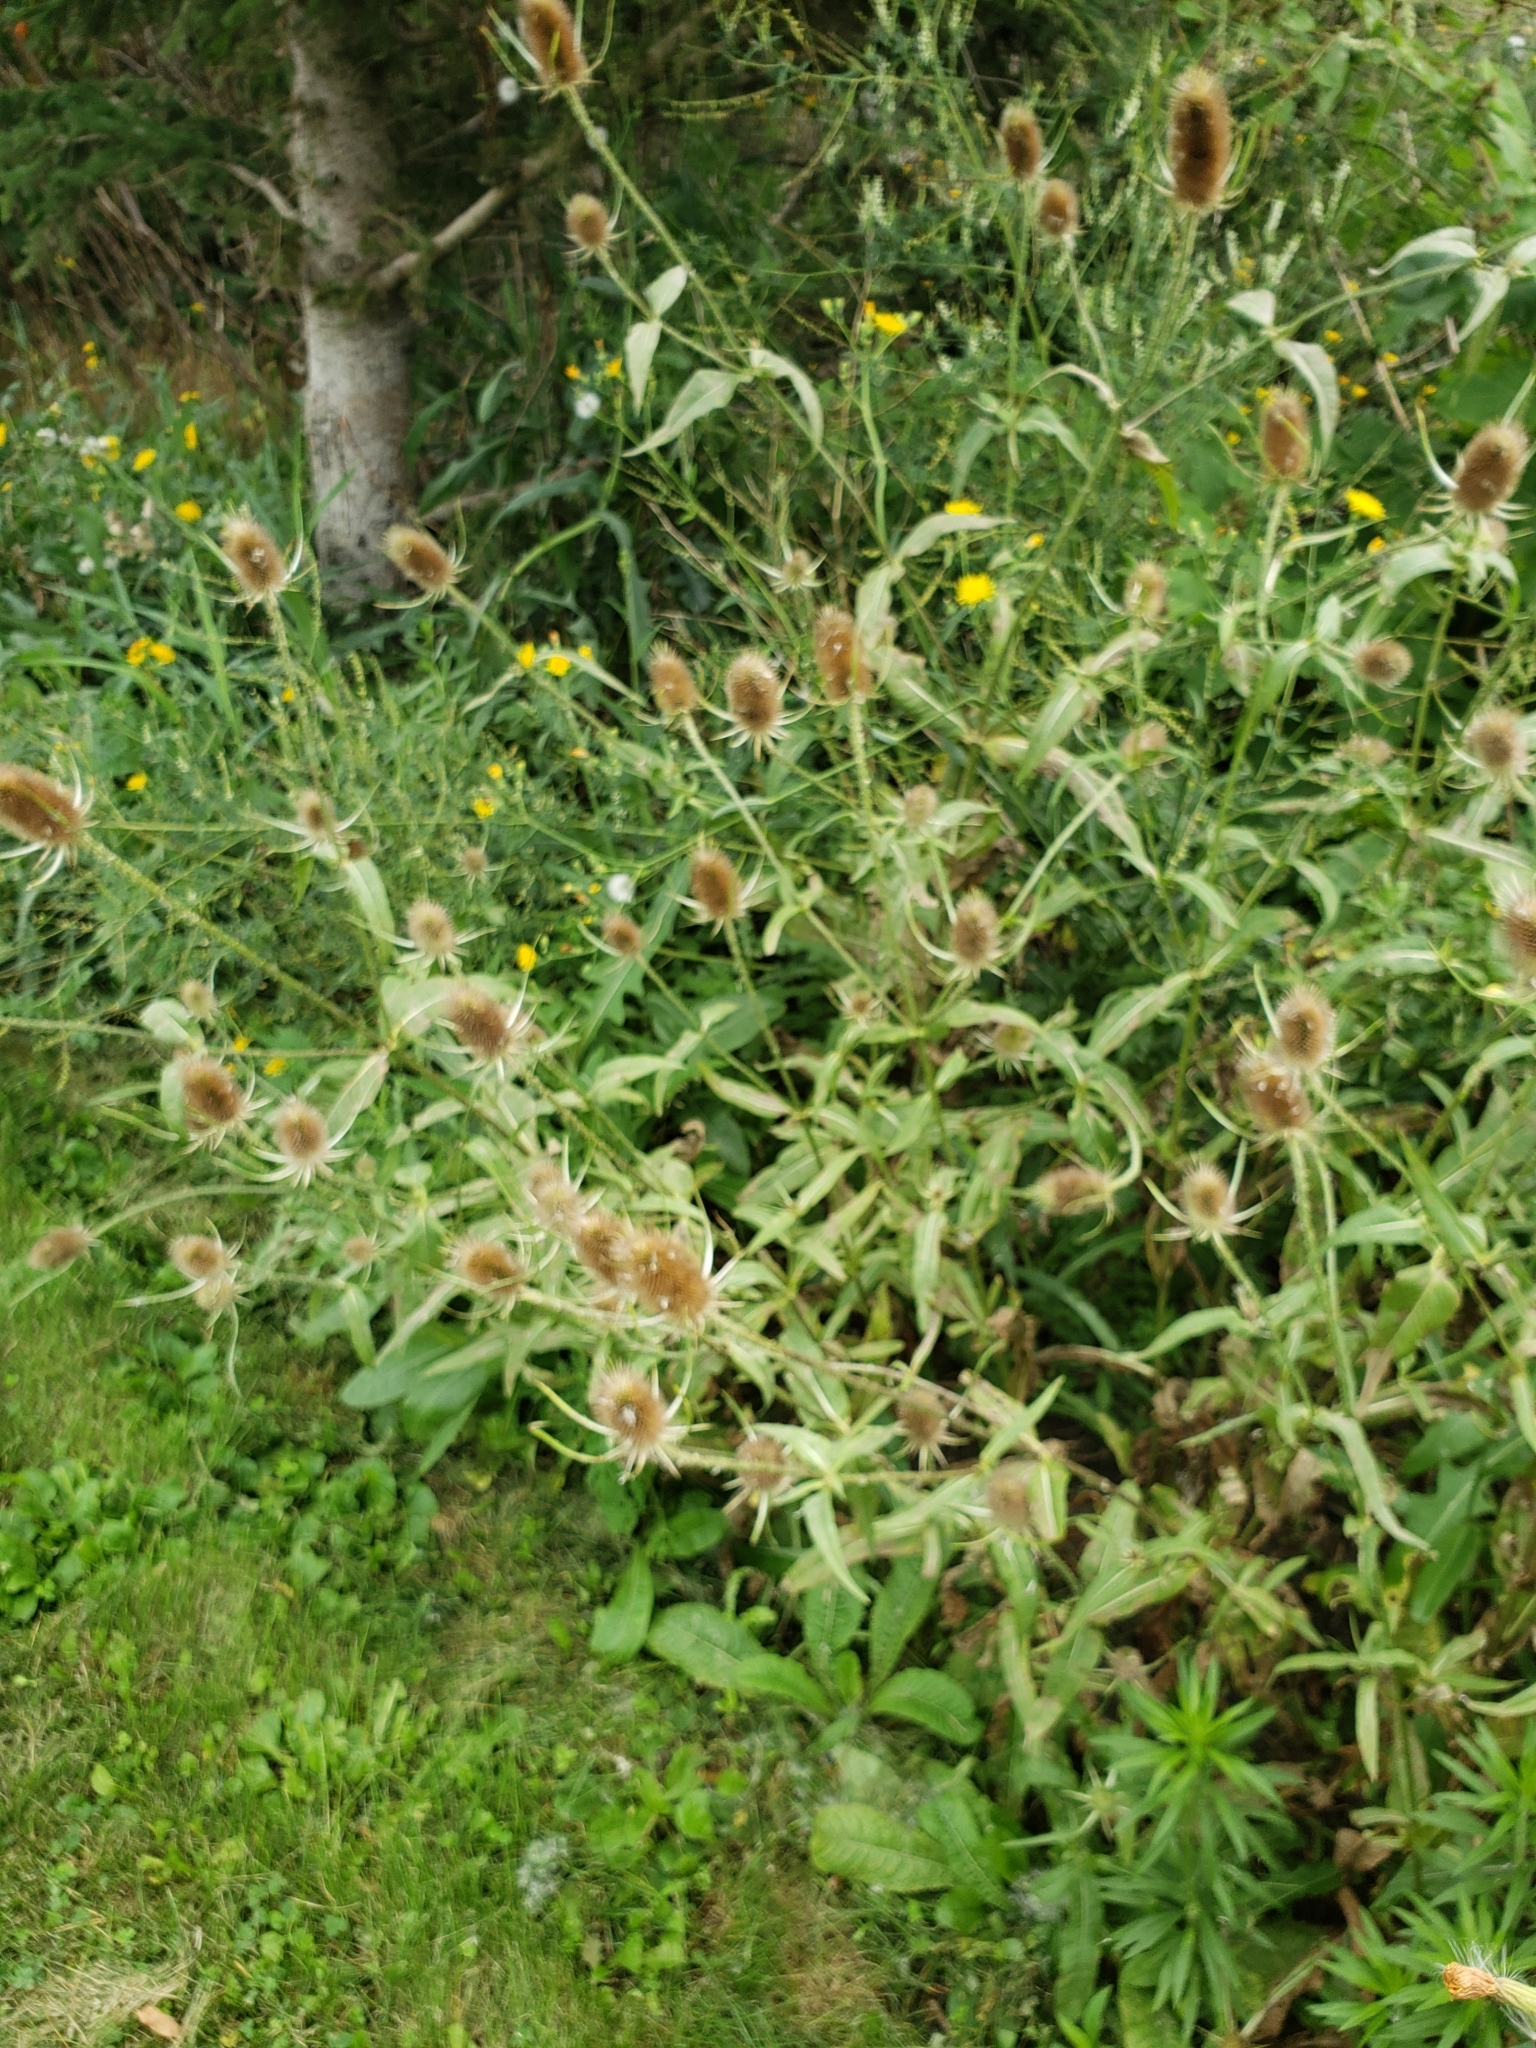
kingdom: Plantae
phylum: Tracheophyta
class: Magnoliopsida
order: Dipsacales
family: Caprifoliaceae
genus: Dipsacus
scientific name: Dipsacus fullonum
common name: Teasel
